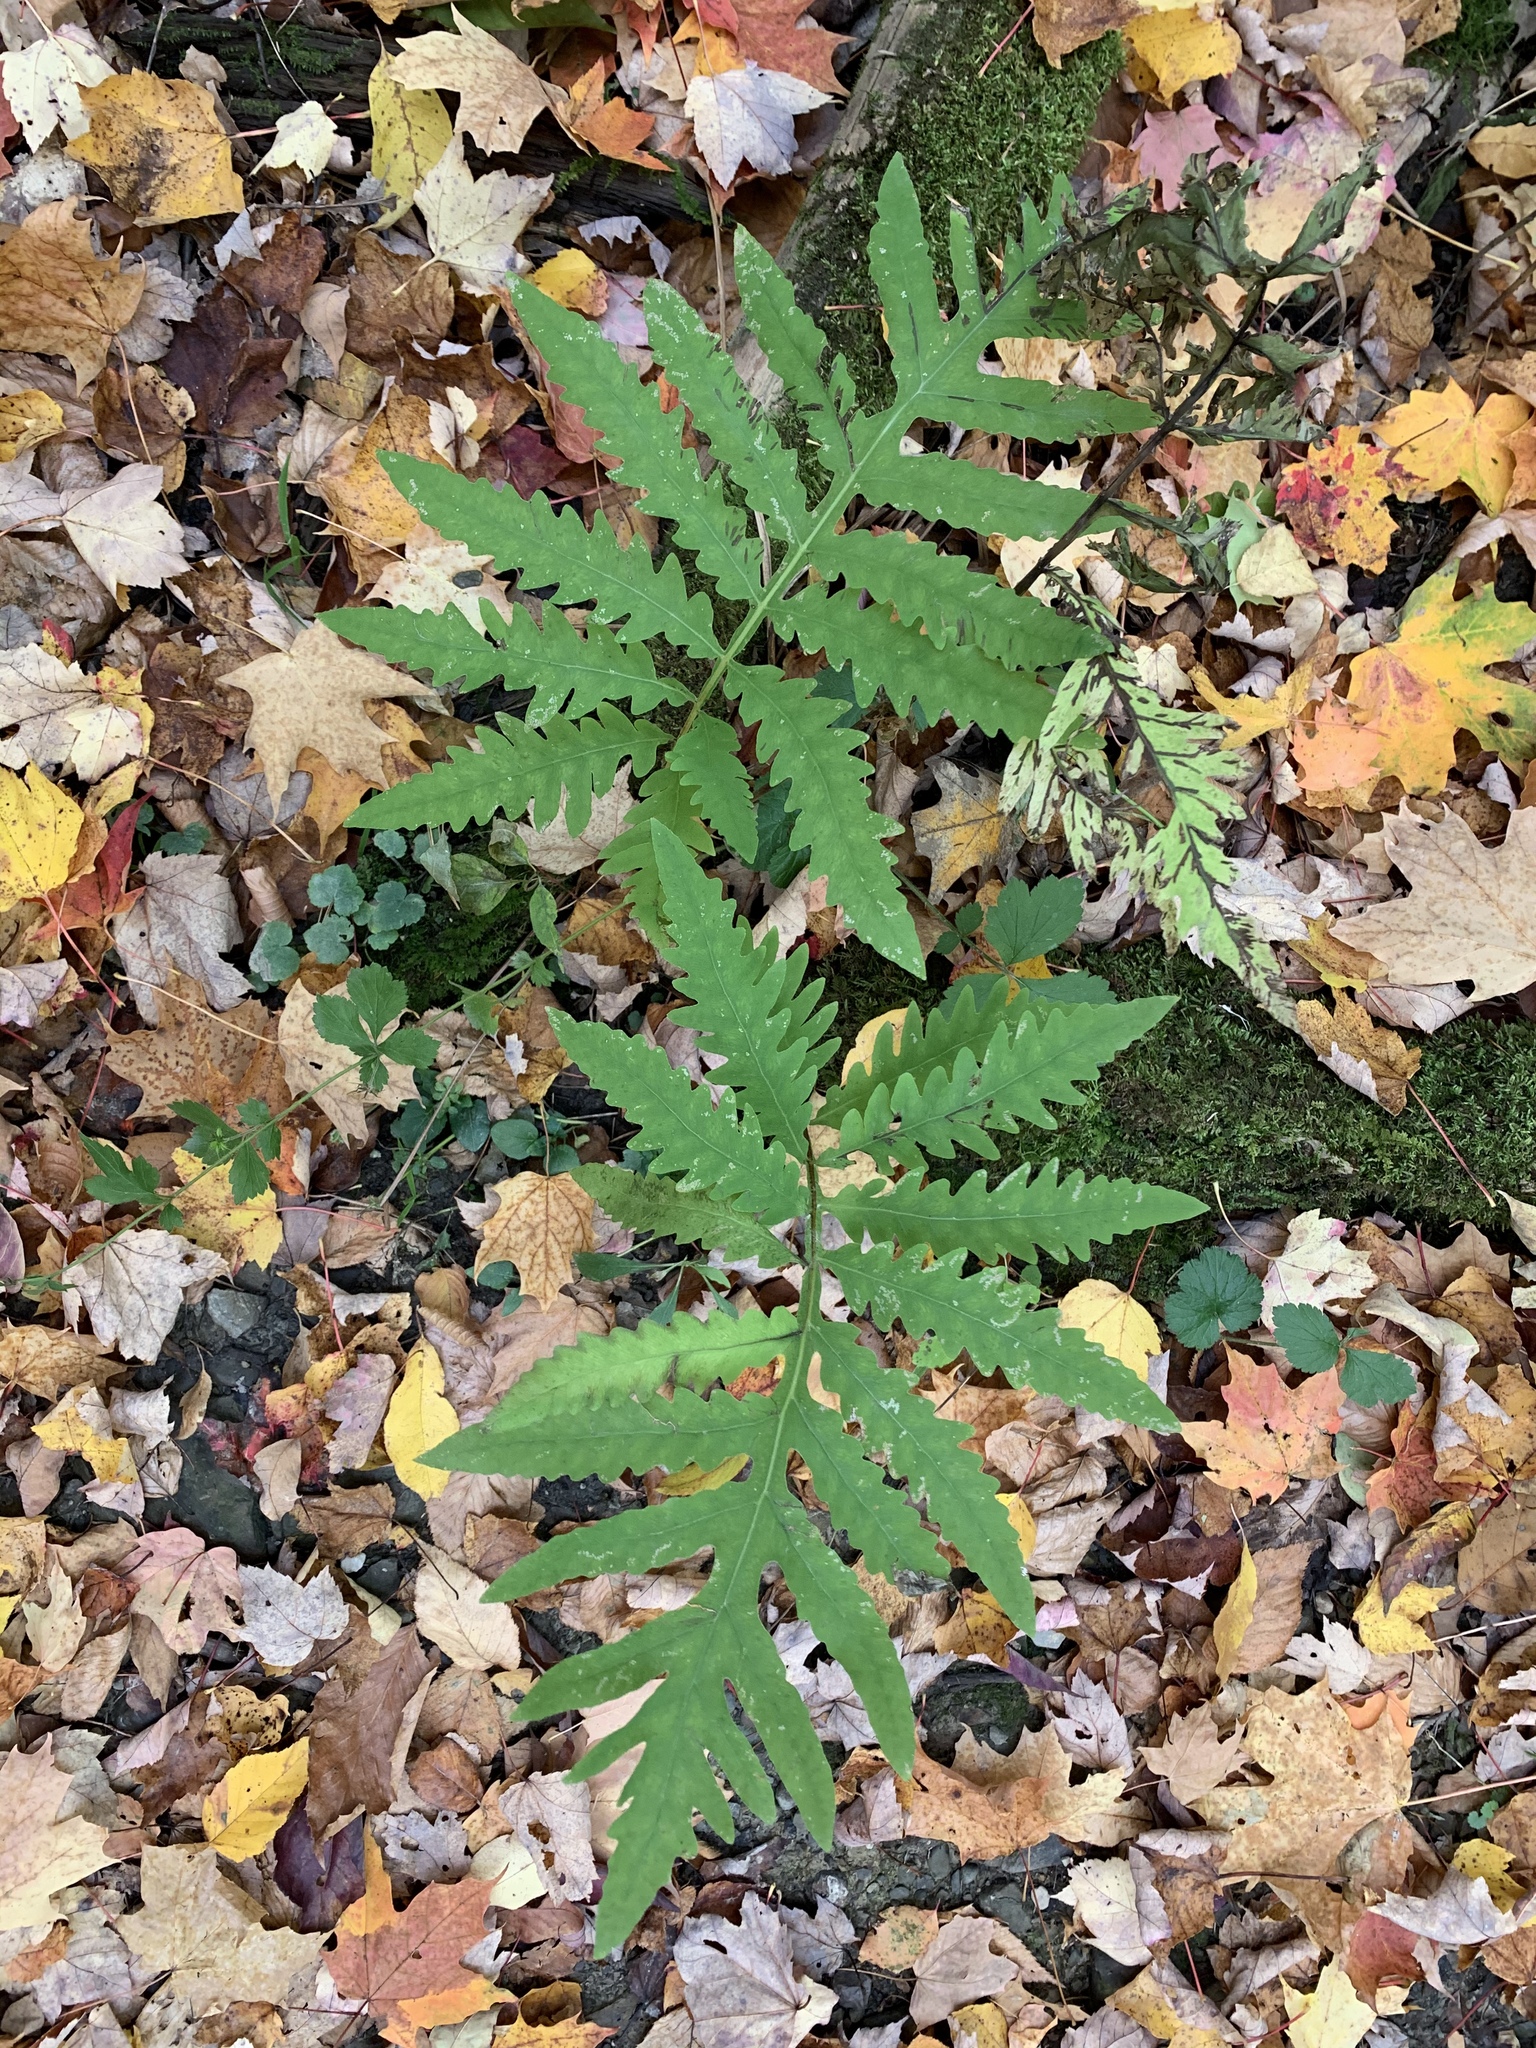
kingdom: Plantae
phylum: Tracheophyta
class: Polypodiopsida
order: Polypodiales
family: Onocleaceae
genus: Onoclea
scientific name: Onoclea sensibilis
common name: Sensitive fern
